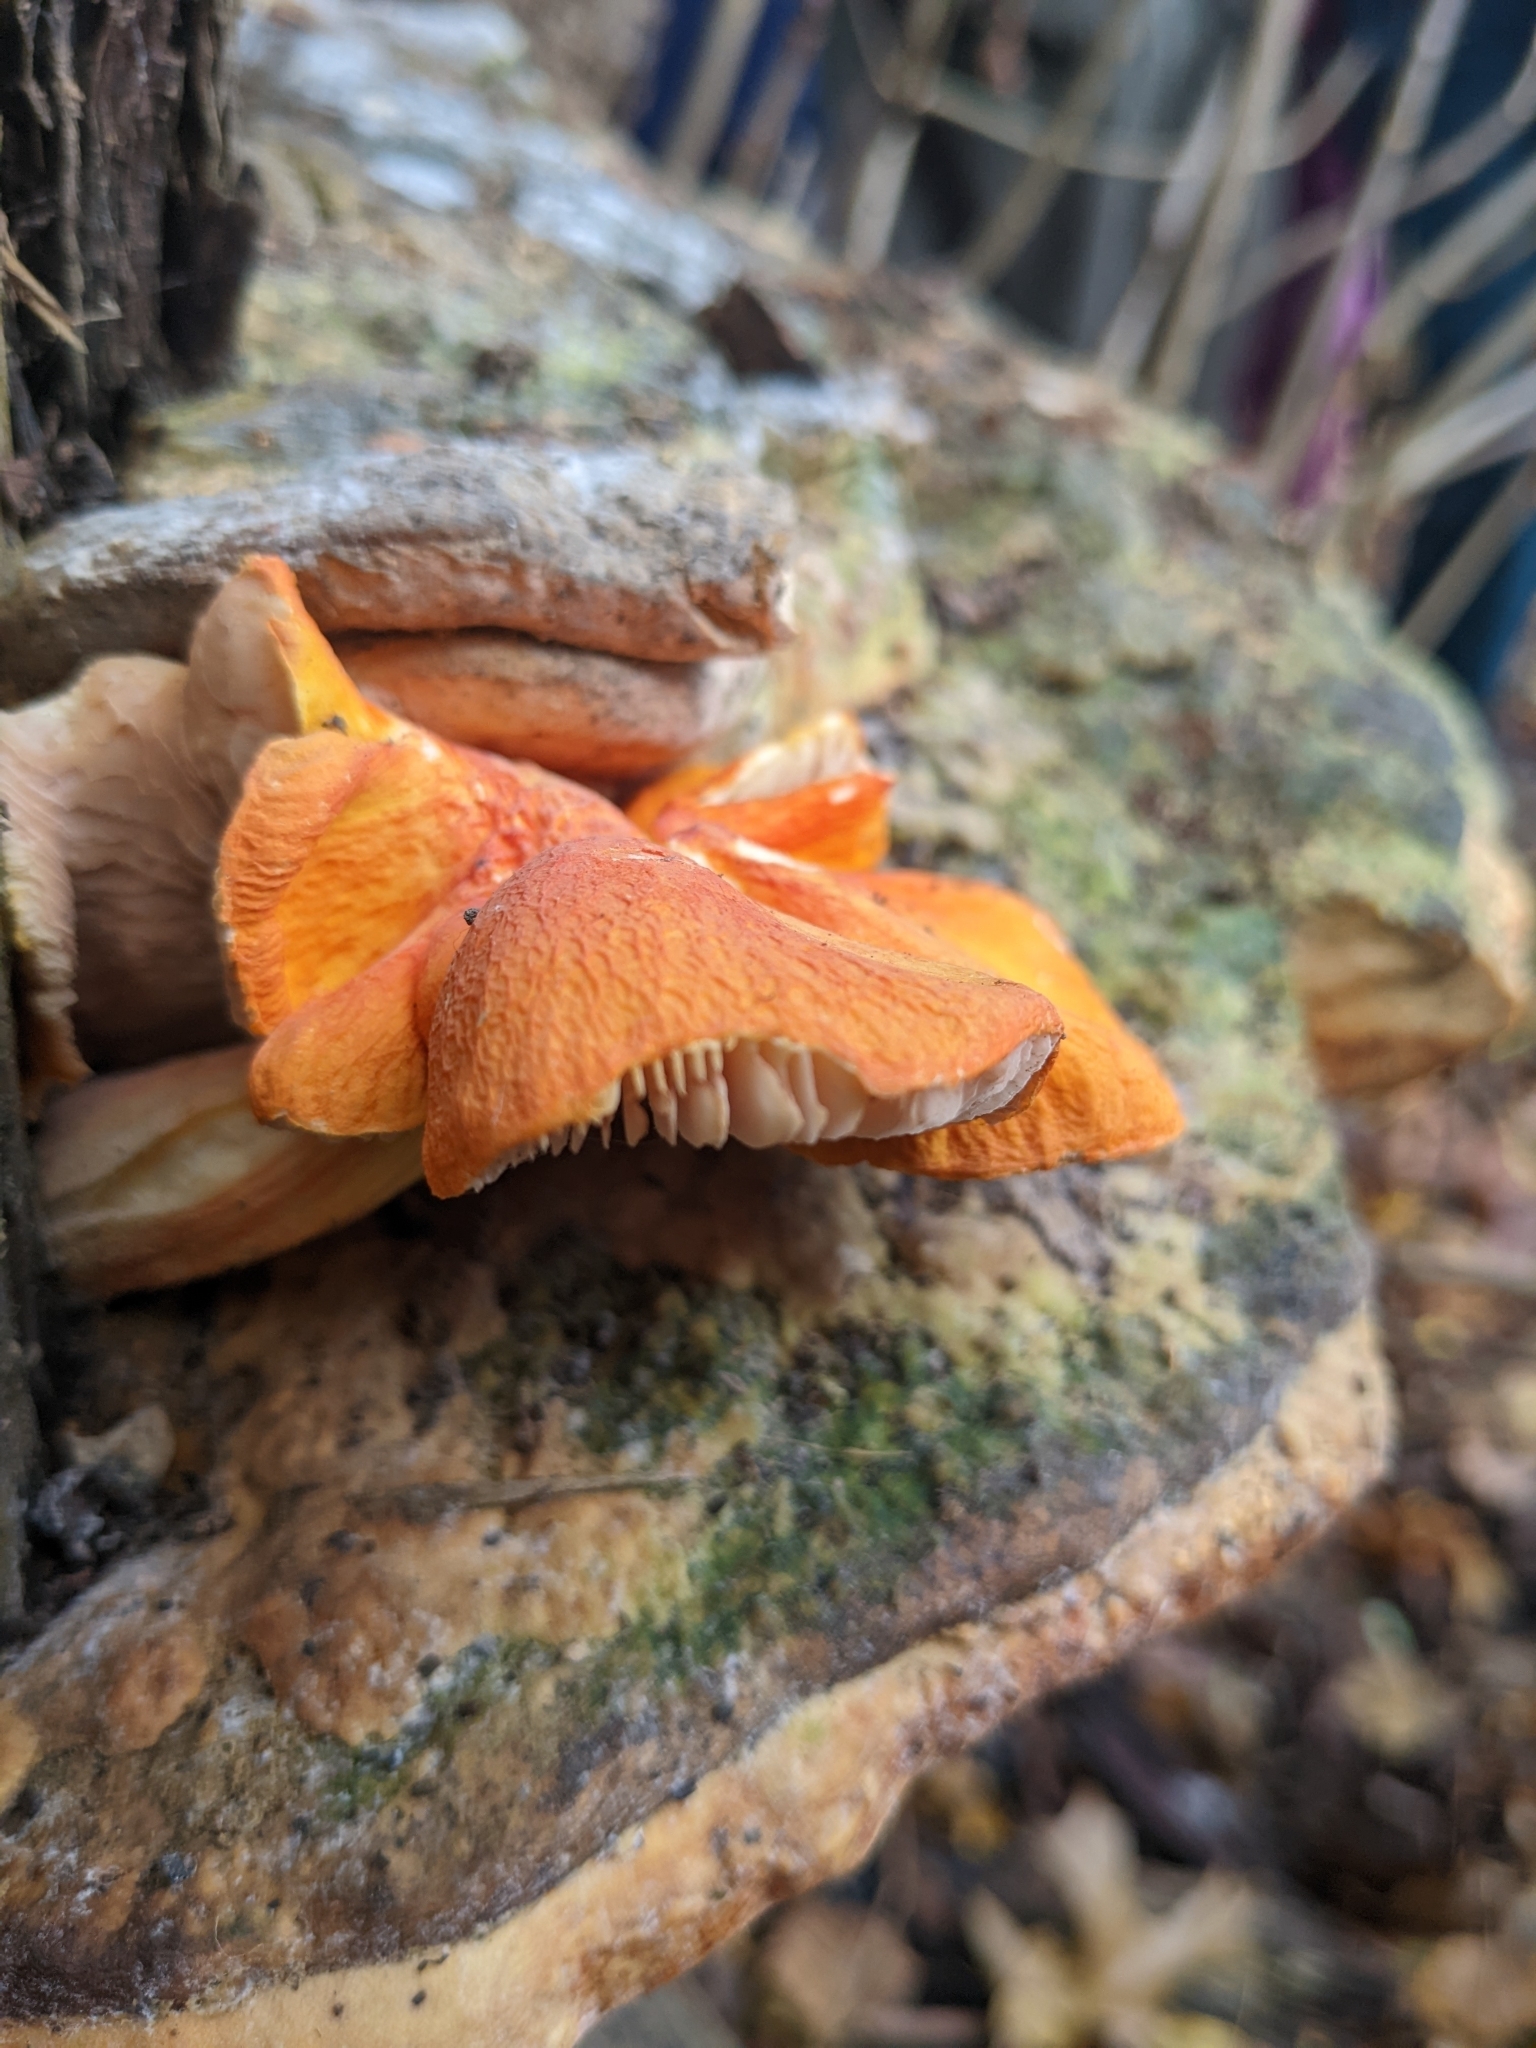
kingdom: Fungi
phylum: Basidiomycota
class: Agaricomycetes
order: Agaricales
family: Pluteaceae
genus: Pluteus
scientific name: Pluteus aurantiorugosus
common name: Flame shield
